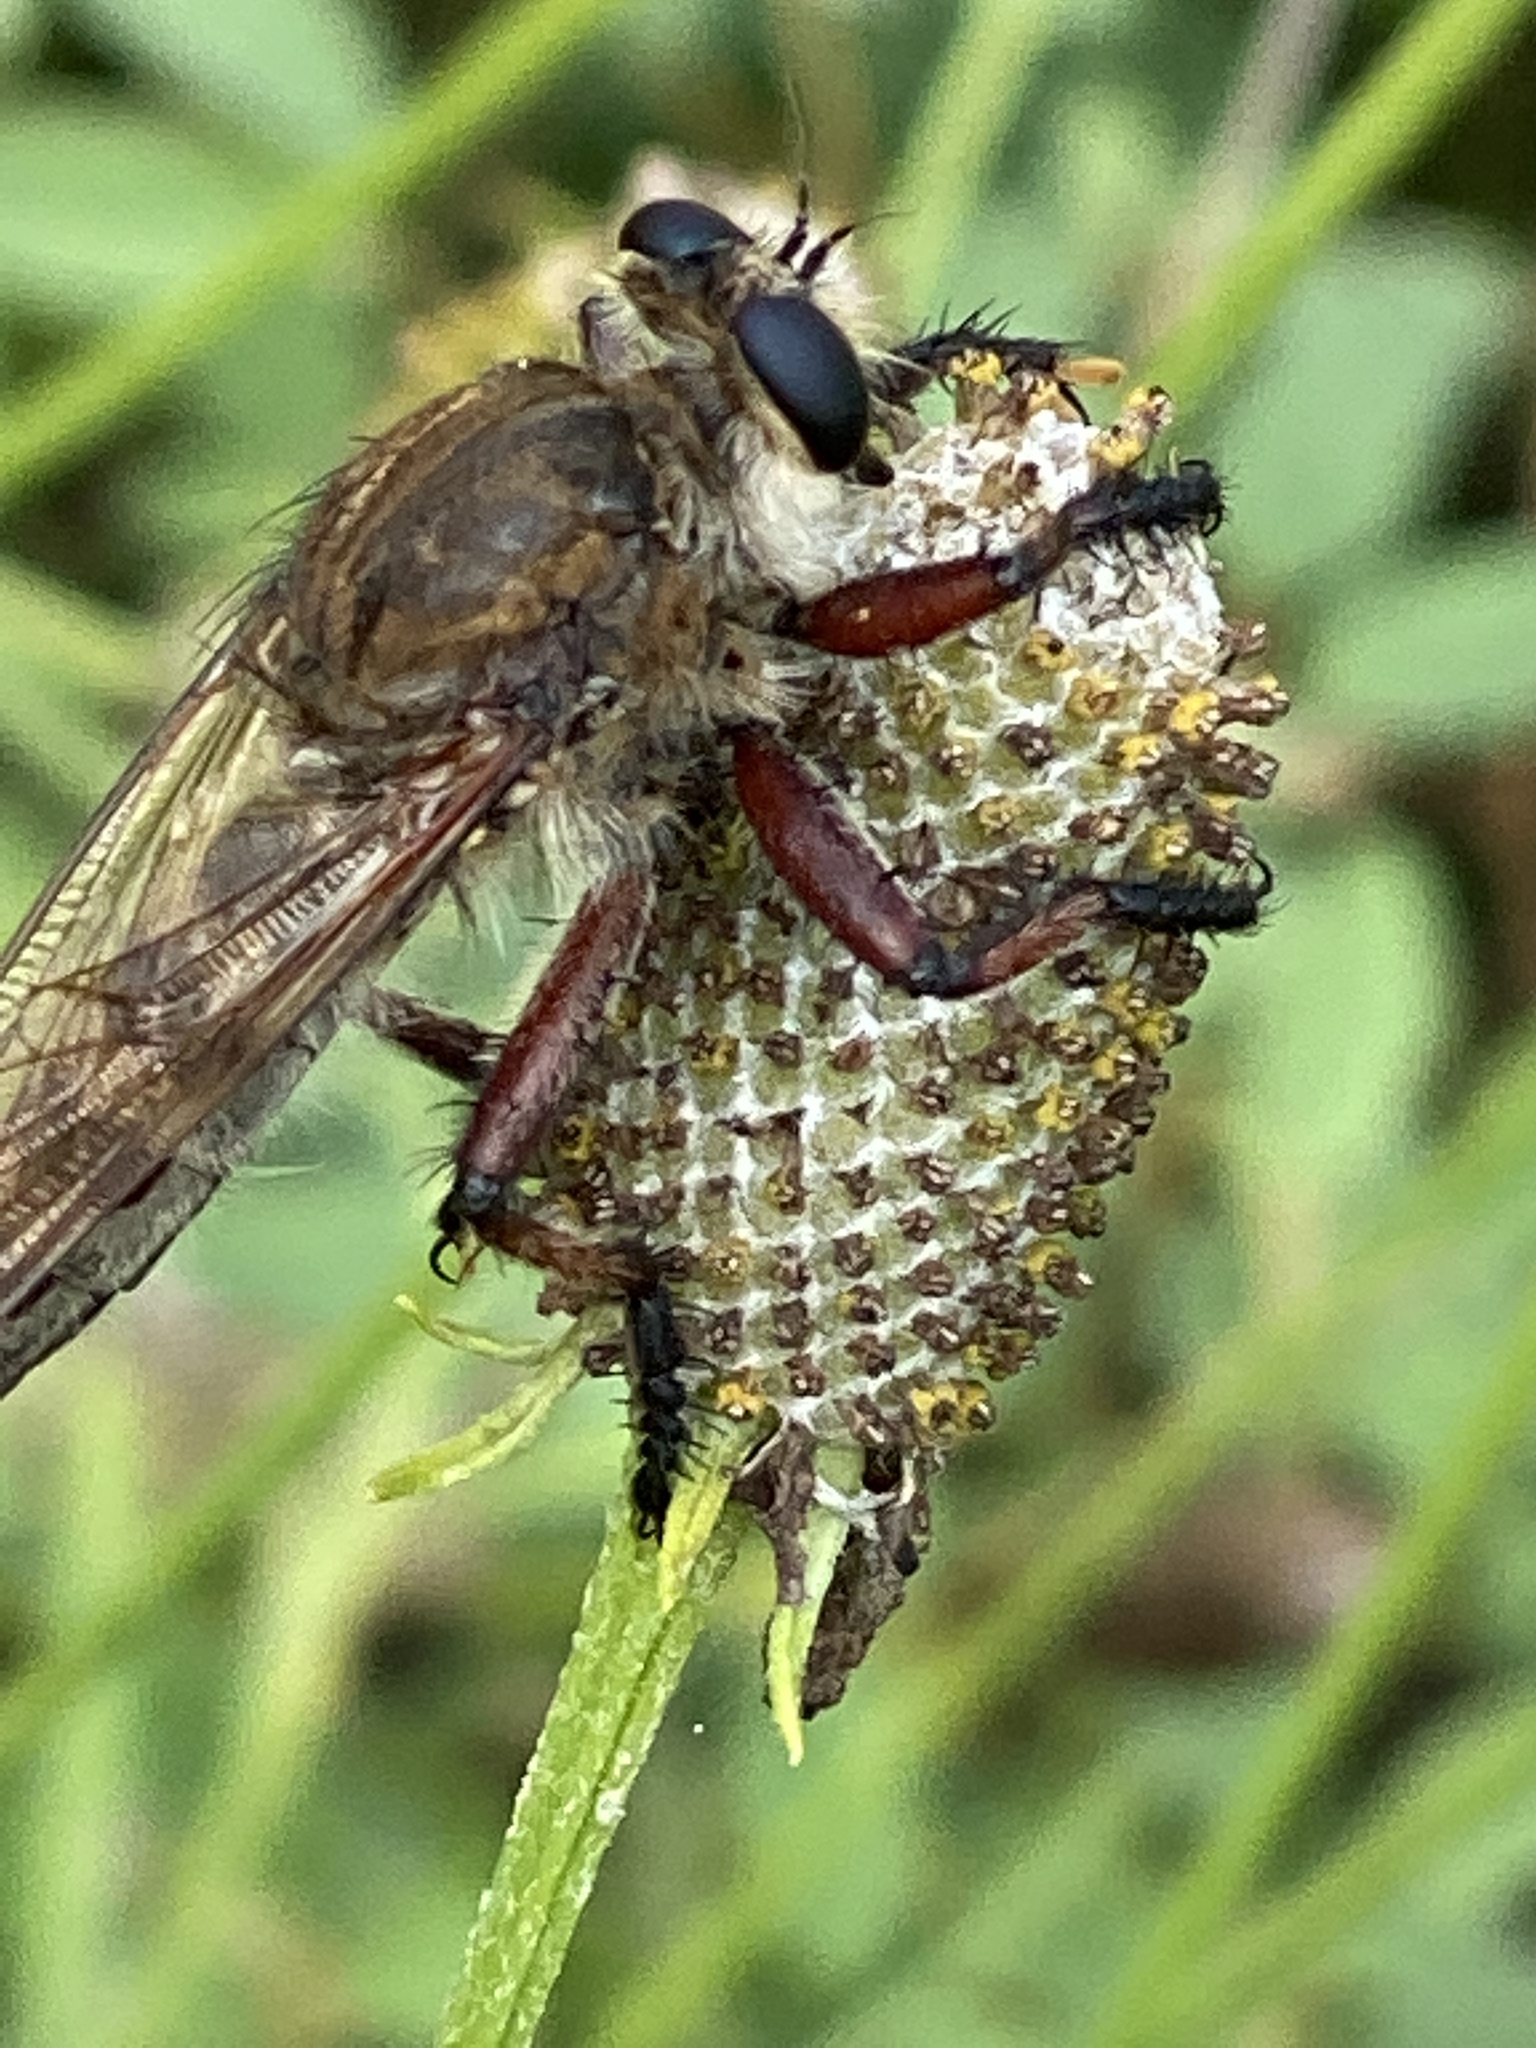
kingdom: Animalia
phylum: Arthropoda
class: Insecta
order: Diptera
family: Asilidae
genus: Promachus
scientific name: Promachus hinei
